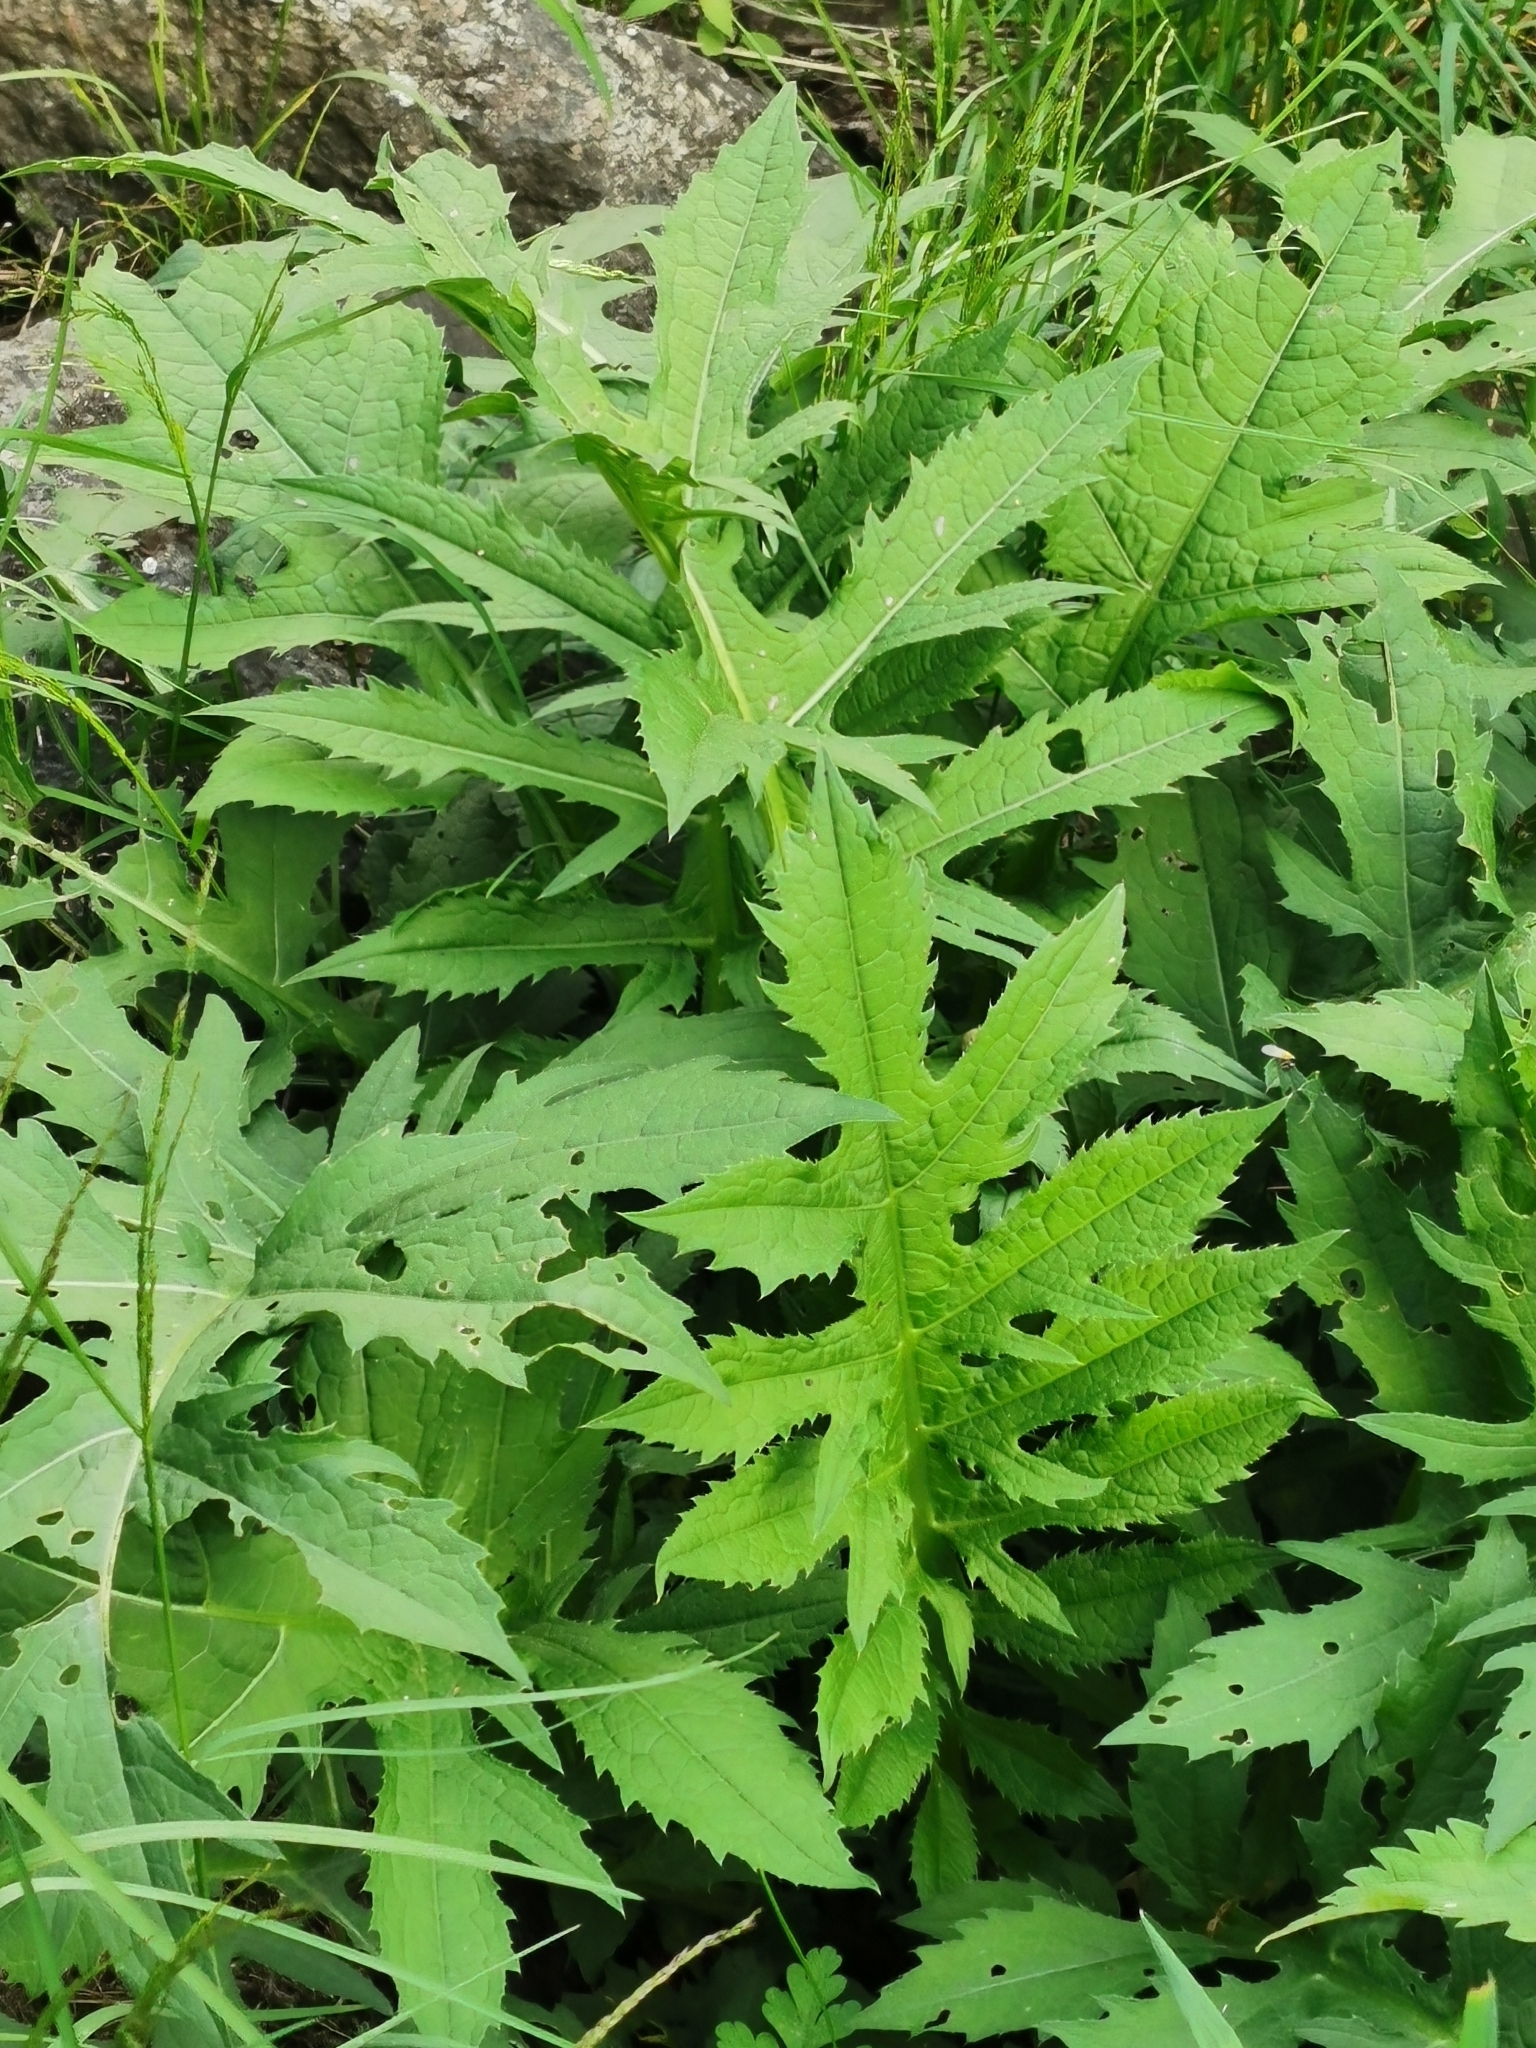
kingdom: Plantae
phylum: Tracheophyta
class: Magnoliopsida
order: Asterales
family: Asteraceae
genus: Cirsium
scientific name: Cirsium oleraceum
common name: Cabbage thistle
